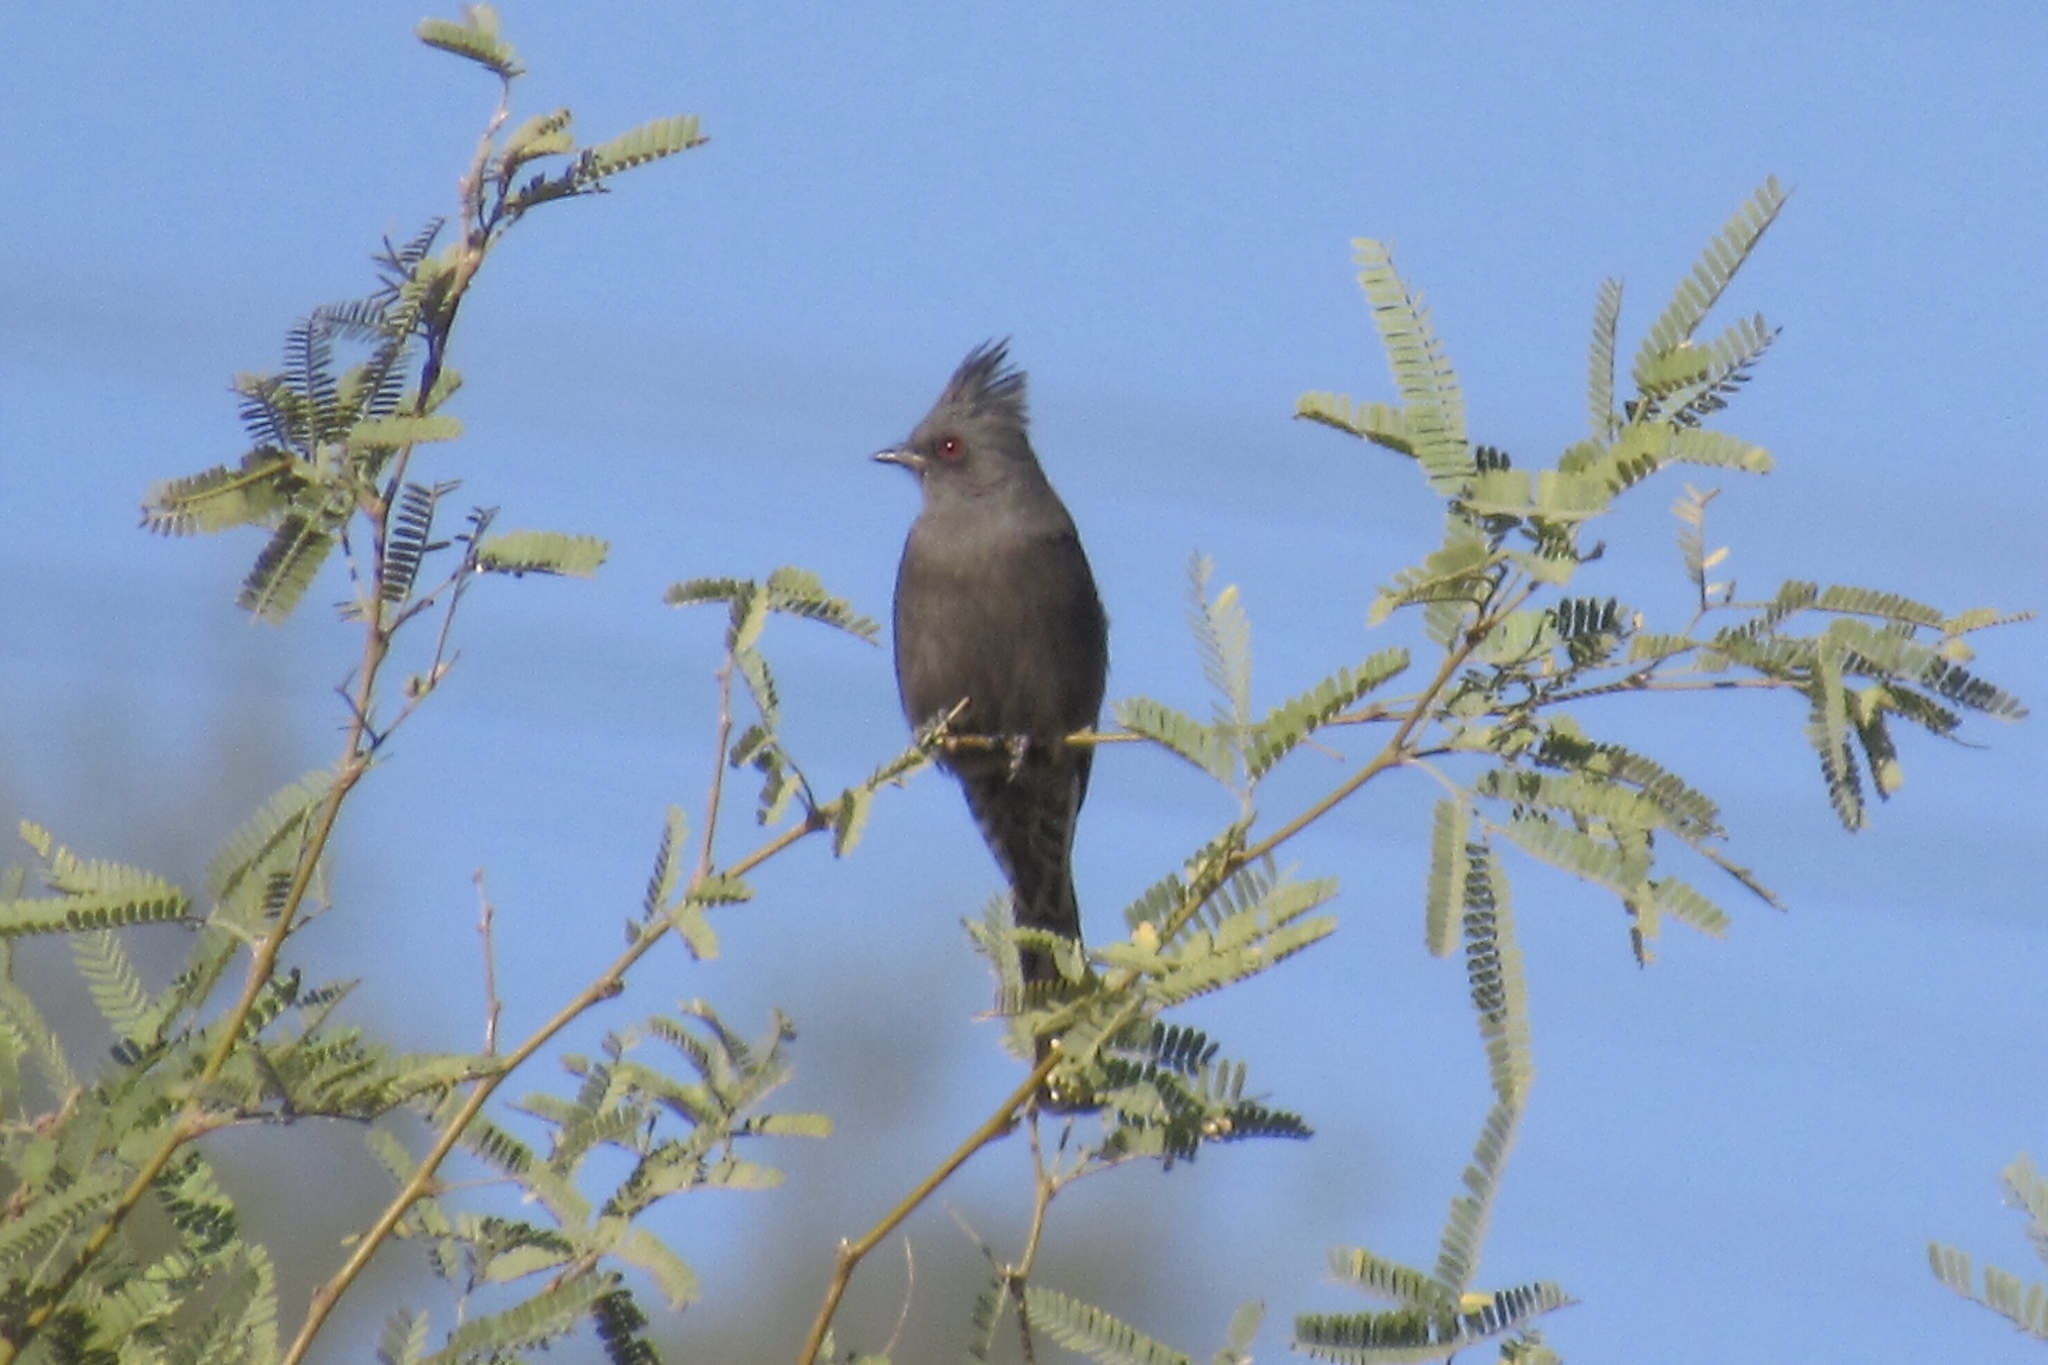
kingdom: Animalia
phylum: Chordata
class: Aves
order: Passeriformes
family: Ptilogonatidae
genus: Phainopepla
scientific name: Phainopepla nitens
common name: Phainopepla
